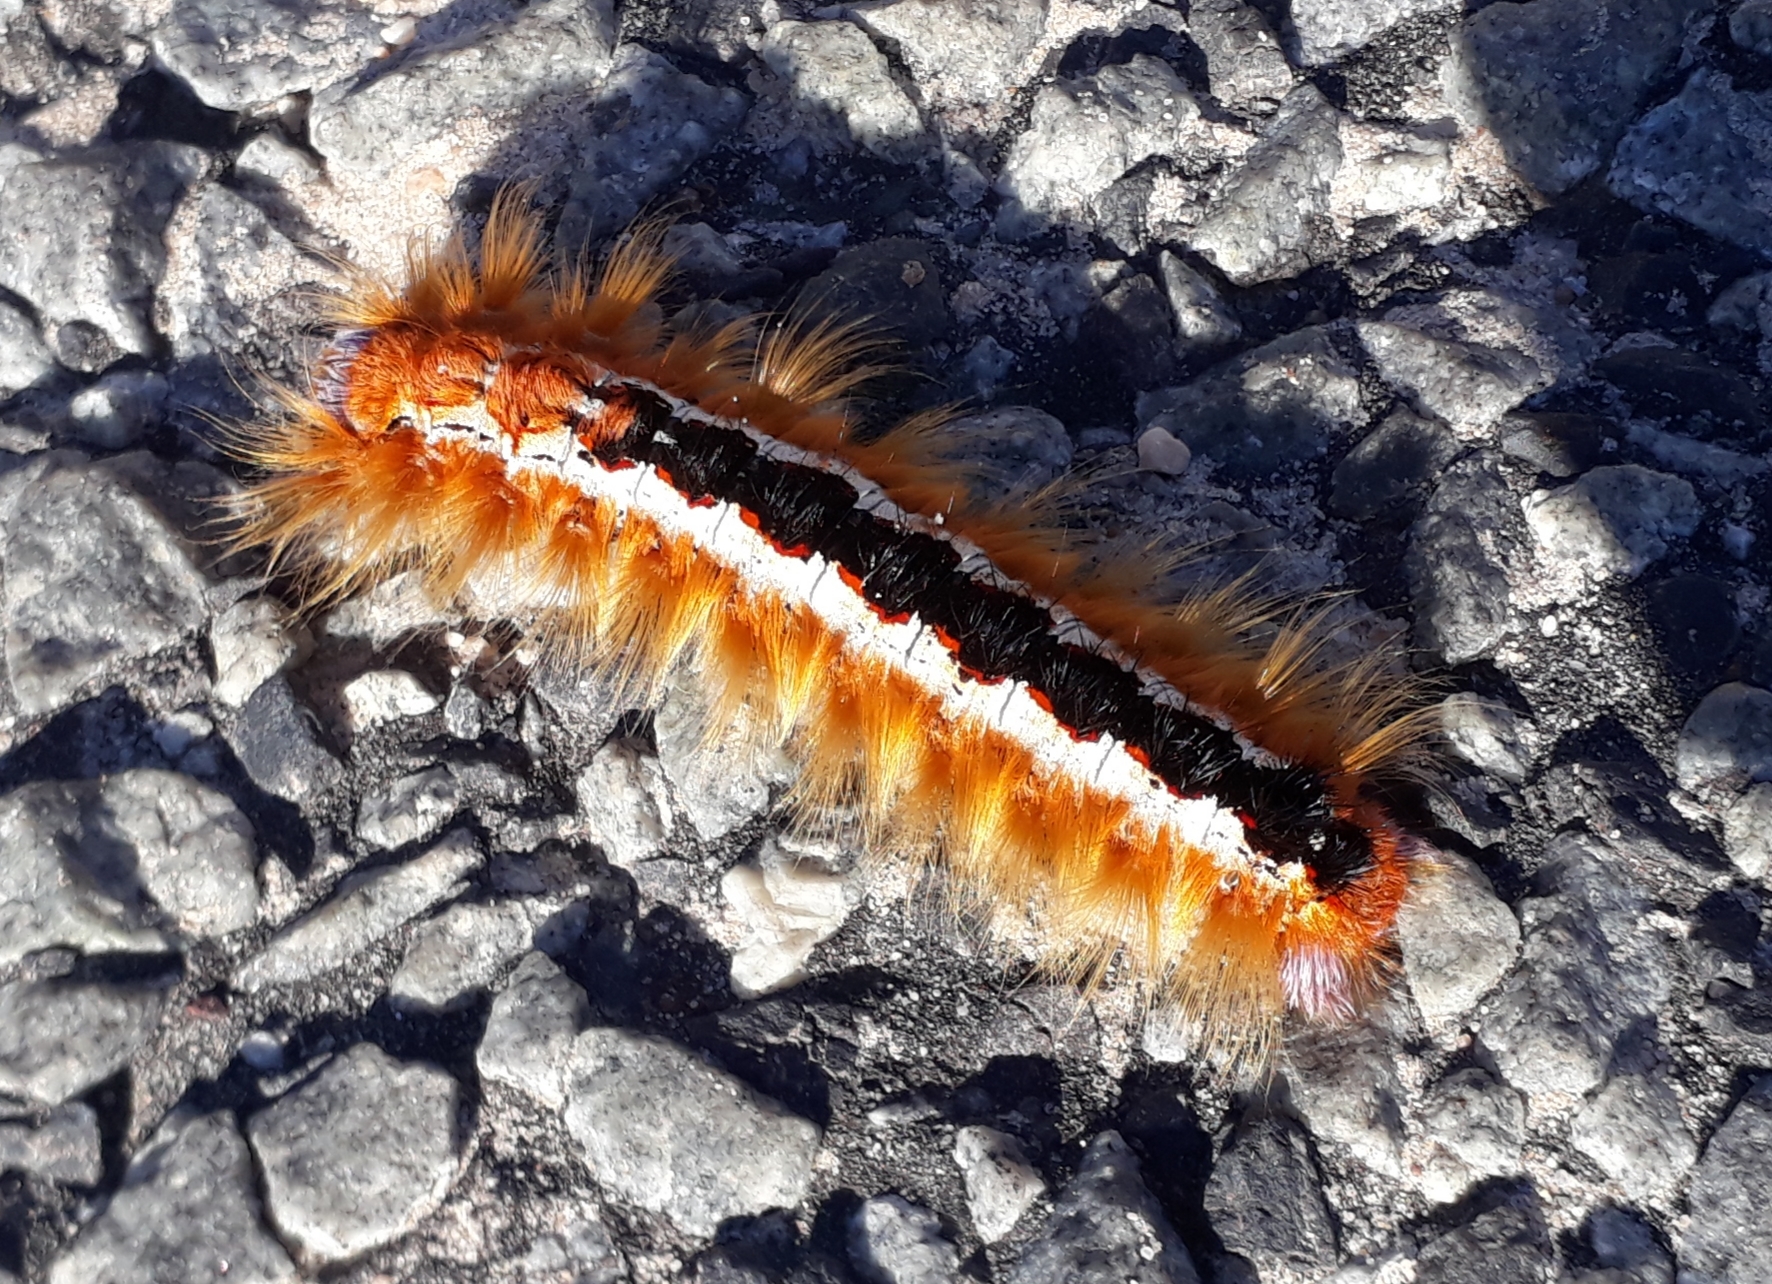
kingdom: Animalia
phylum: Arthropoda
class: Insecta
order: Lepidoptera
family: Lasiocampidae
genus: Eutricha
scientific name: Eutricha capensis
